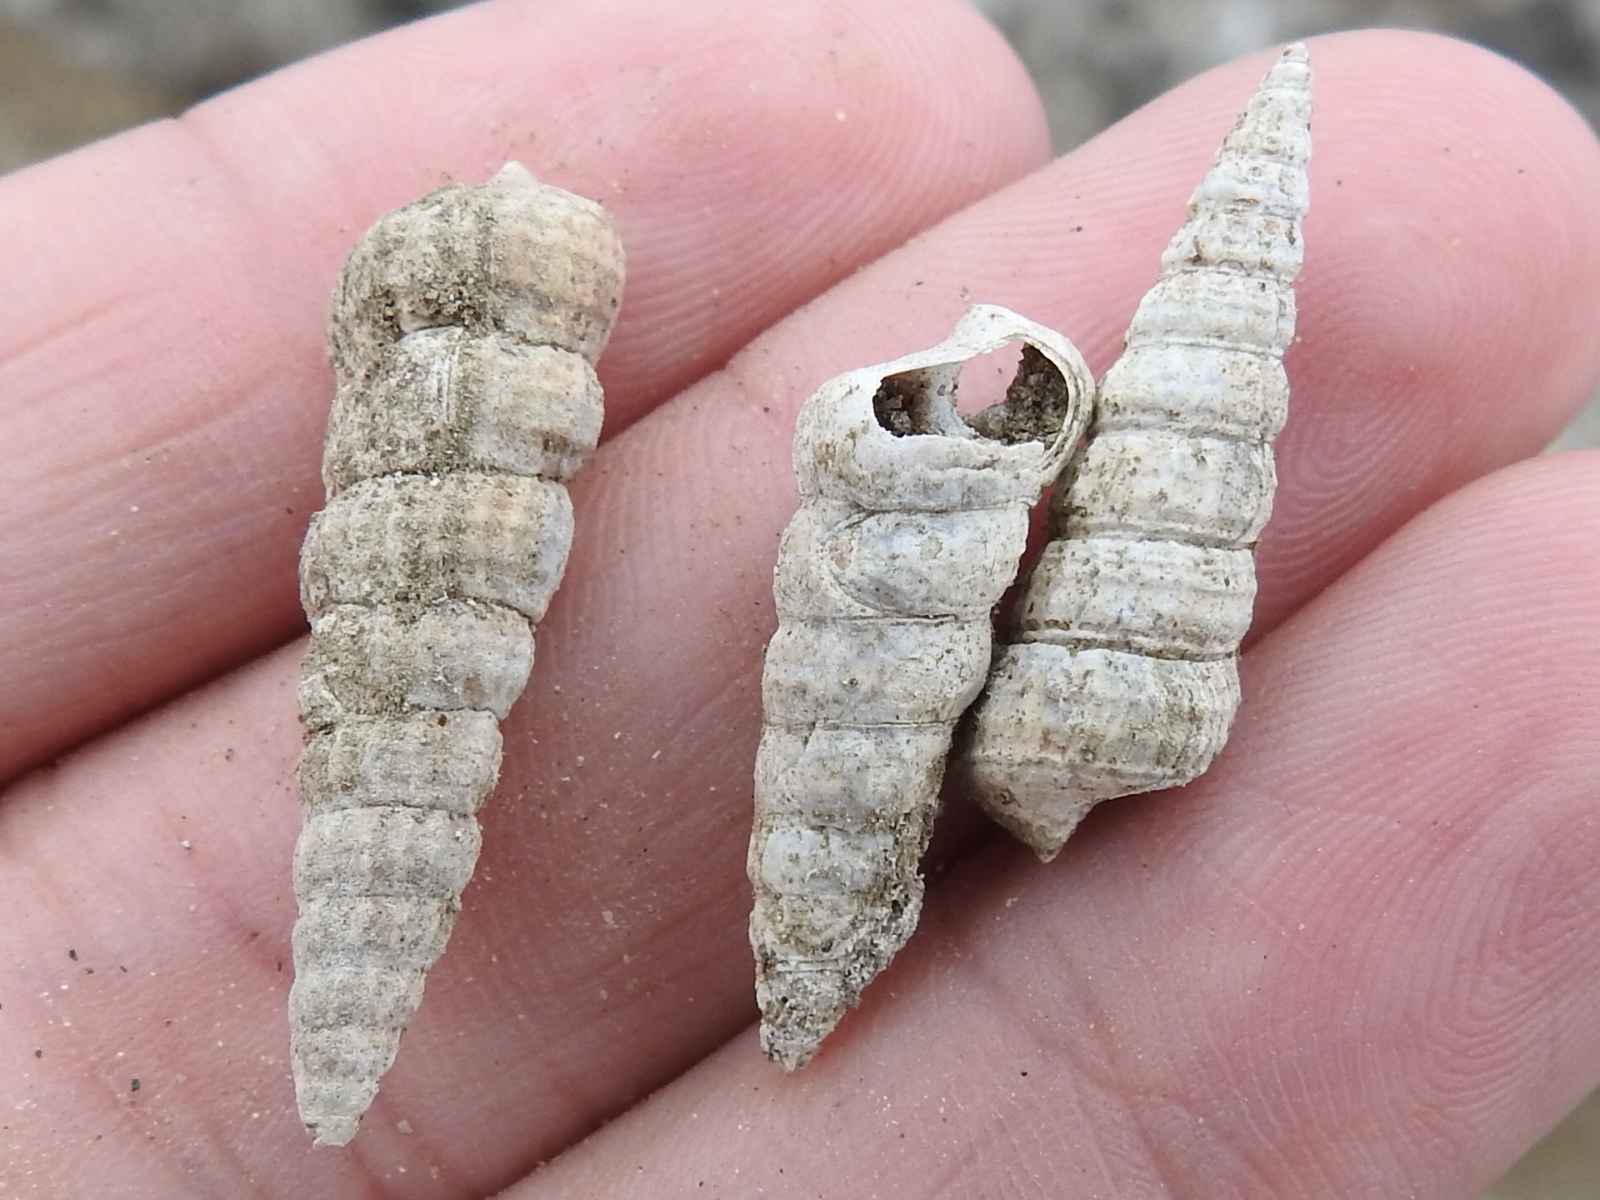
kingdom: Animalia
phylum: Mollusca
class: Gastropoda
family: Potamididae
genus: Cerithideopsis
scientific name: Cerithideopsis californica
